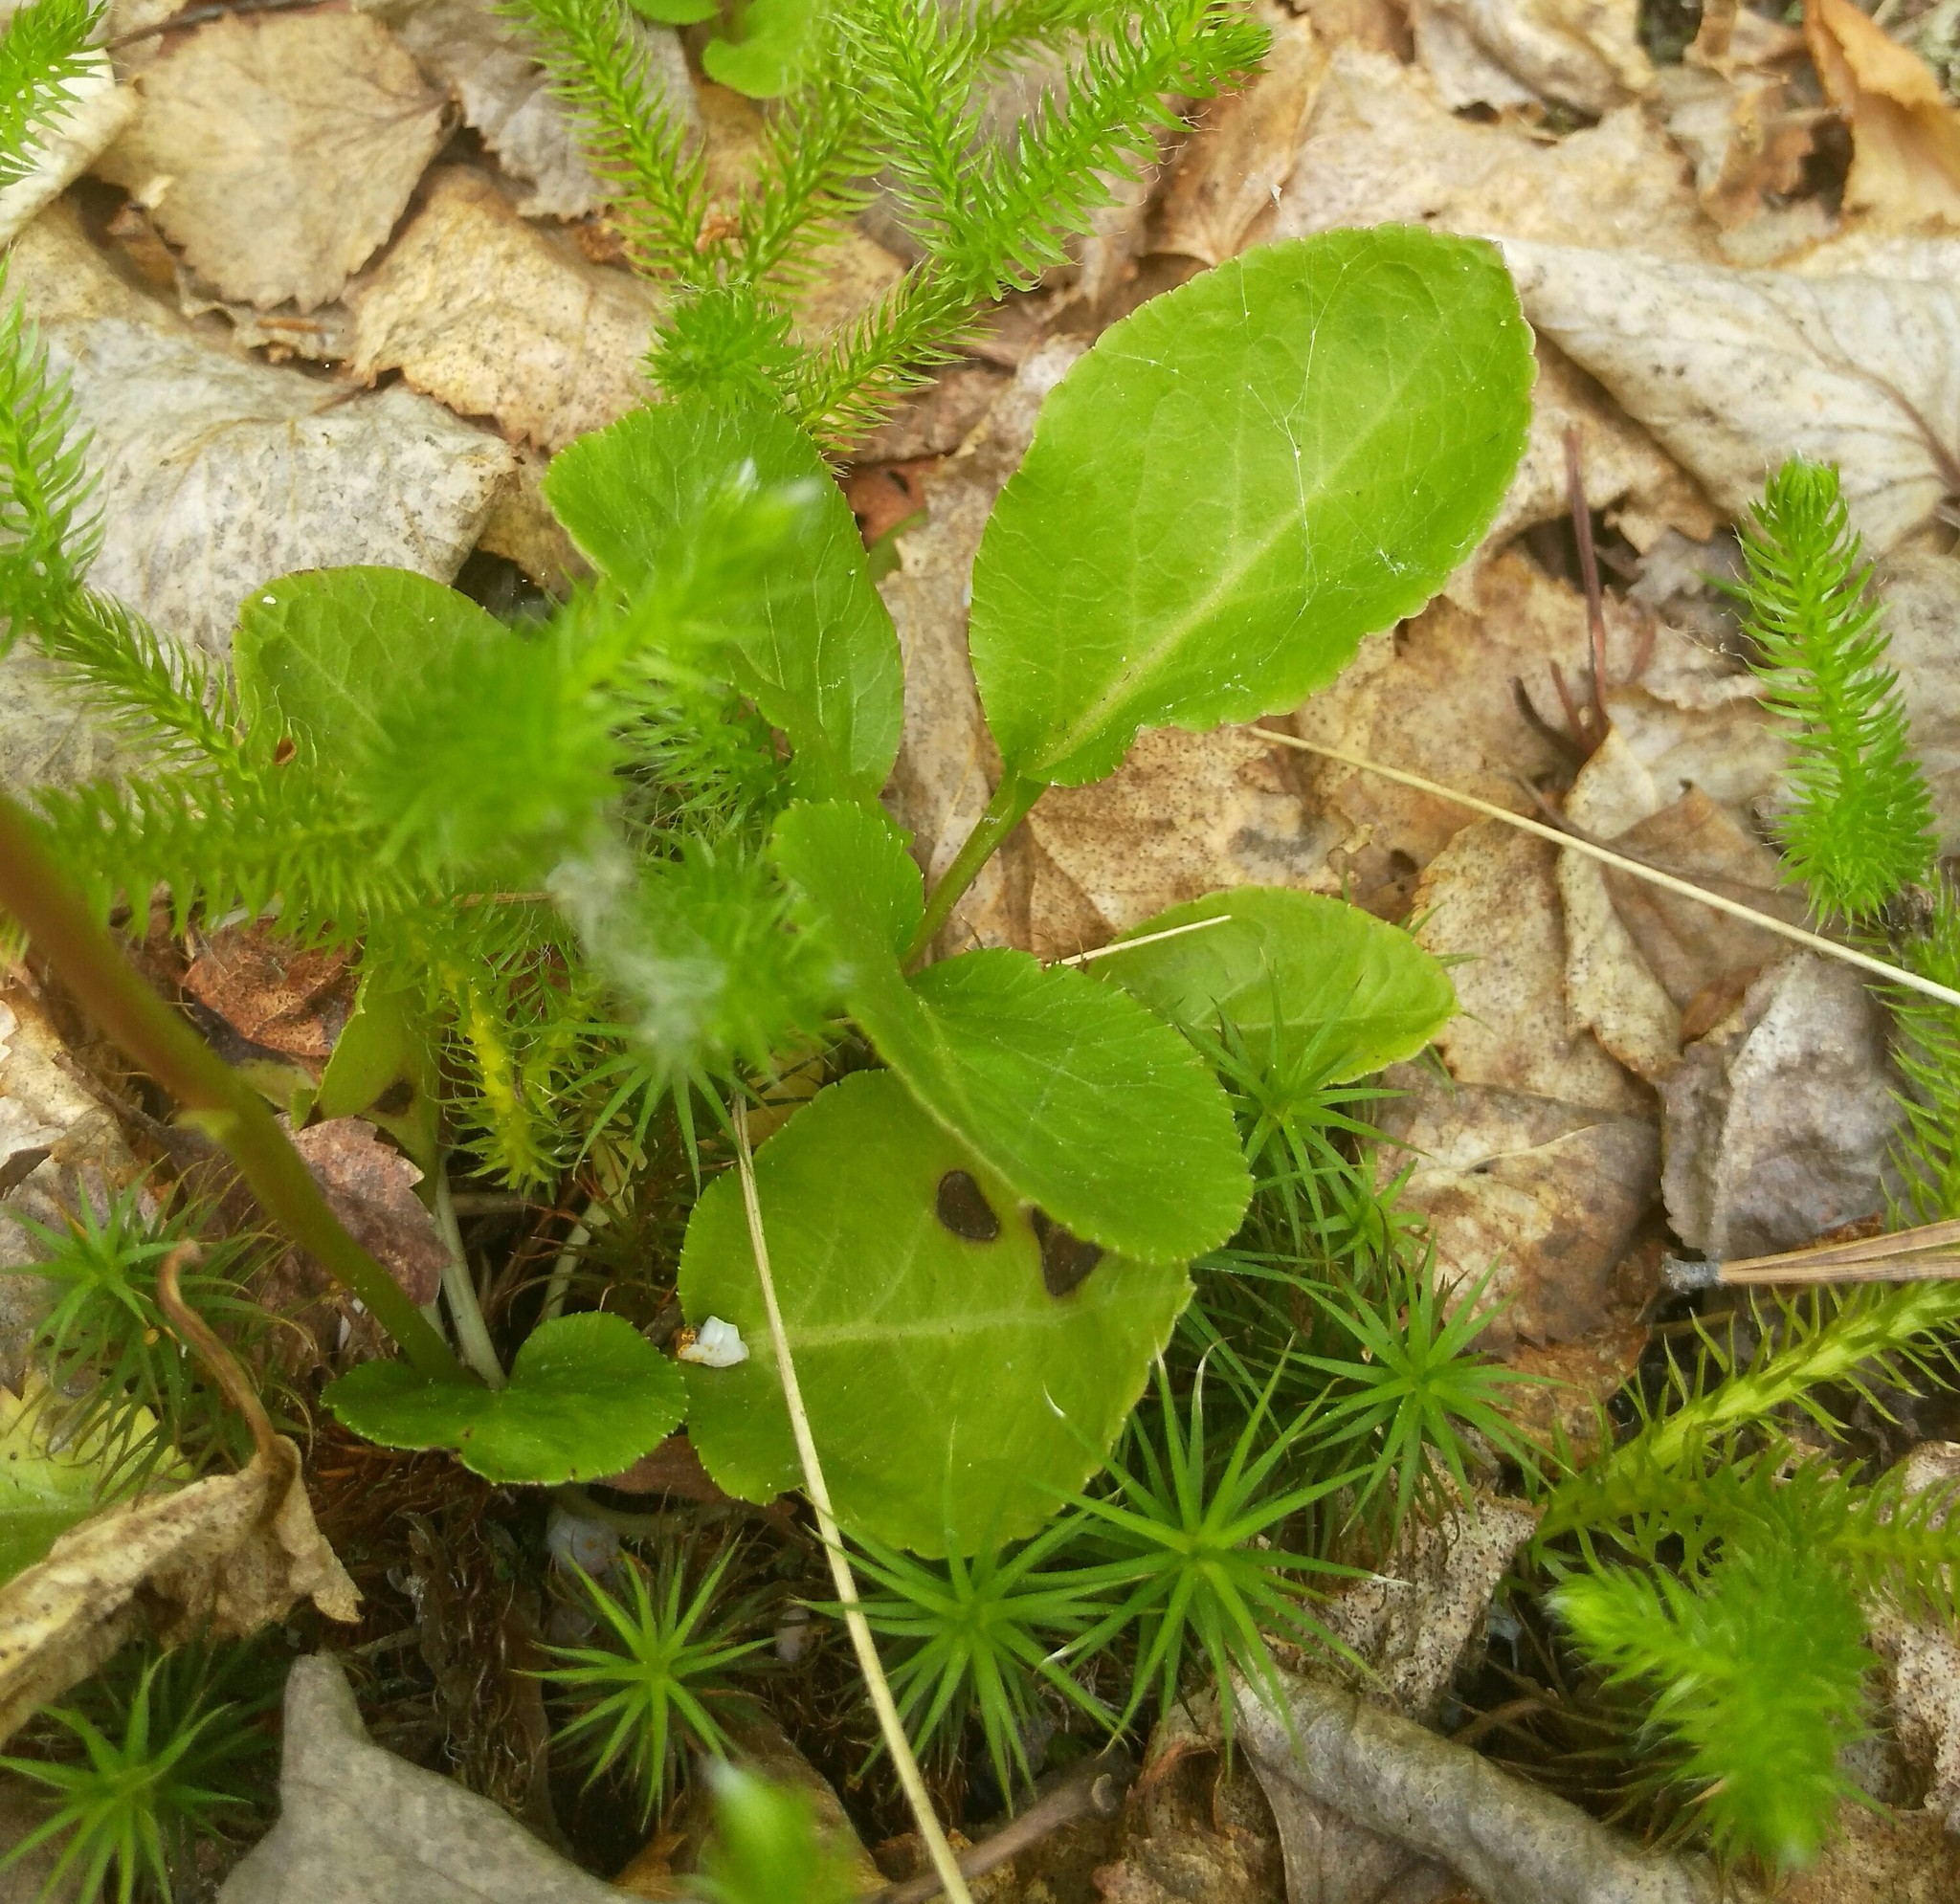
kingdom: Plantae
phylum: Tracheophyta
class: Magnoliopsida
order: Ericales
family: Ericaceae
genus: Pyrola
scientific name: Pyrola minor
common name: Common wintergreen
